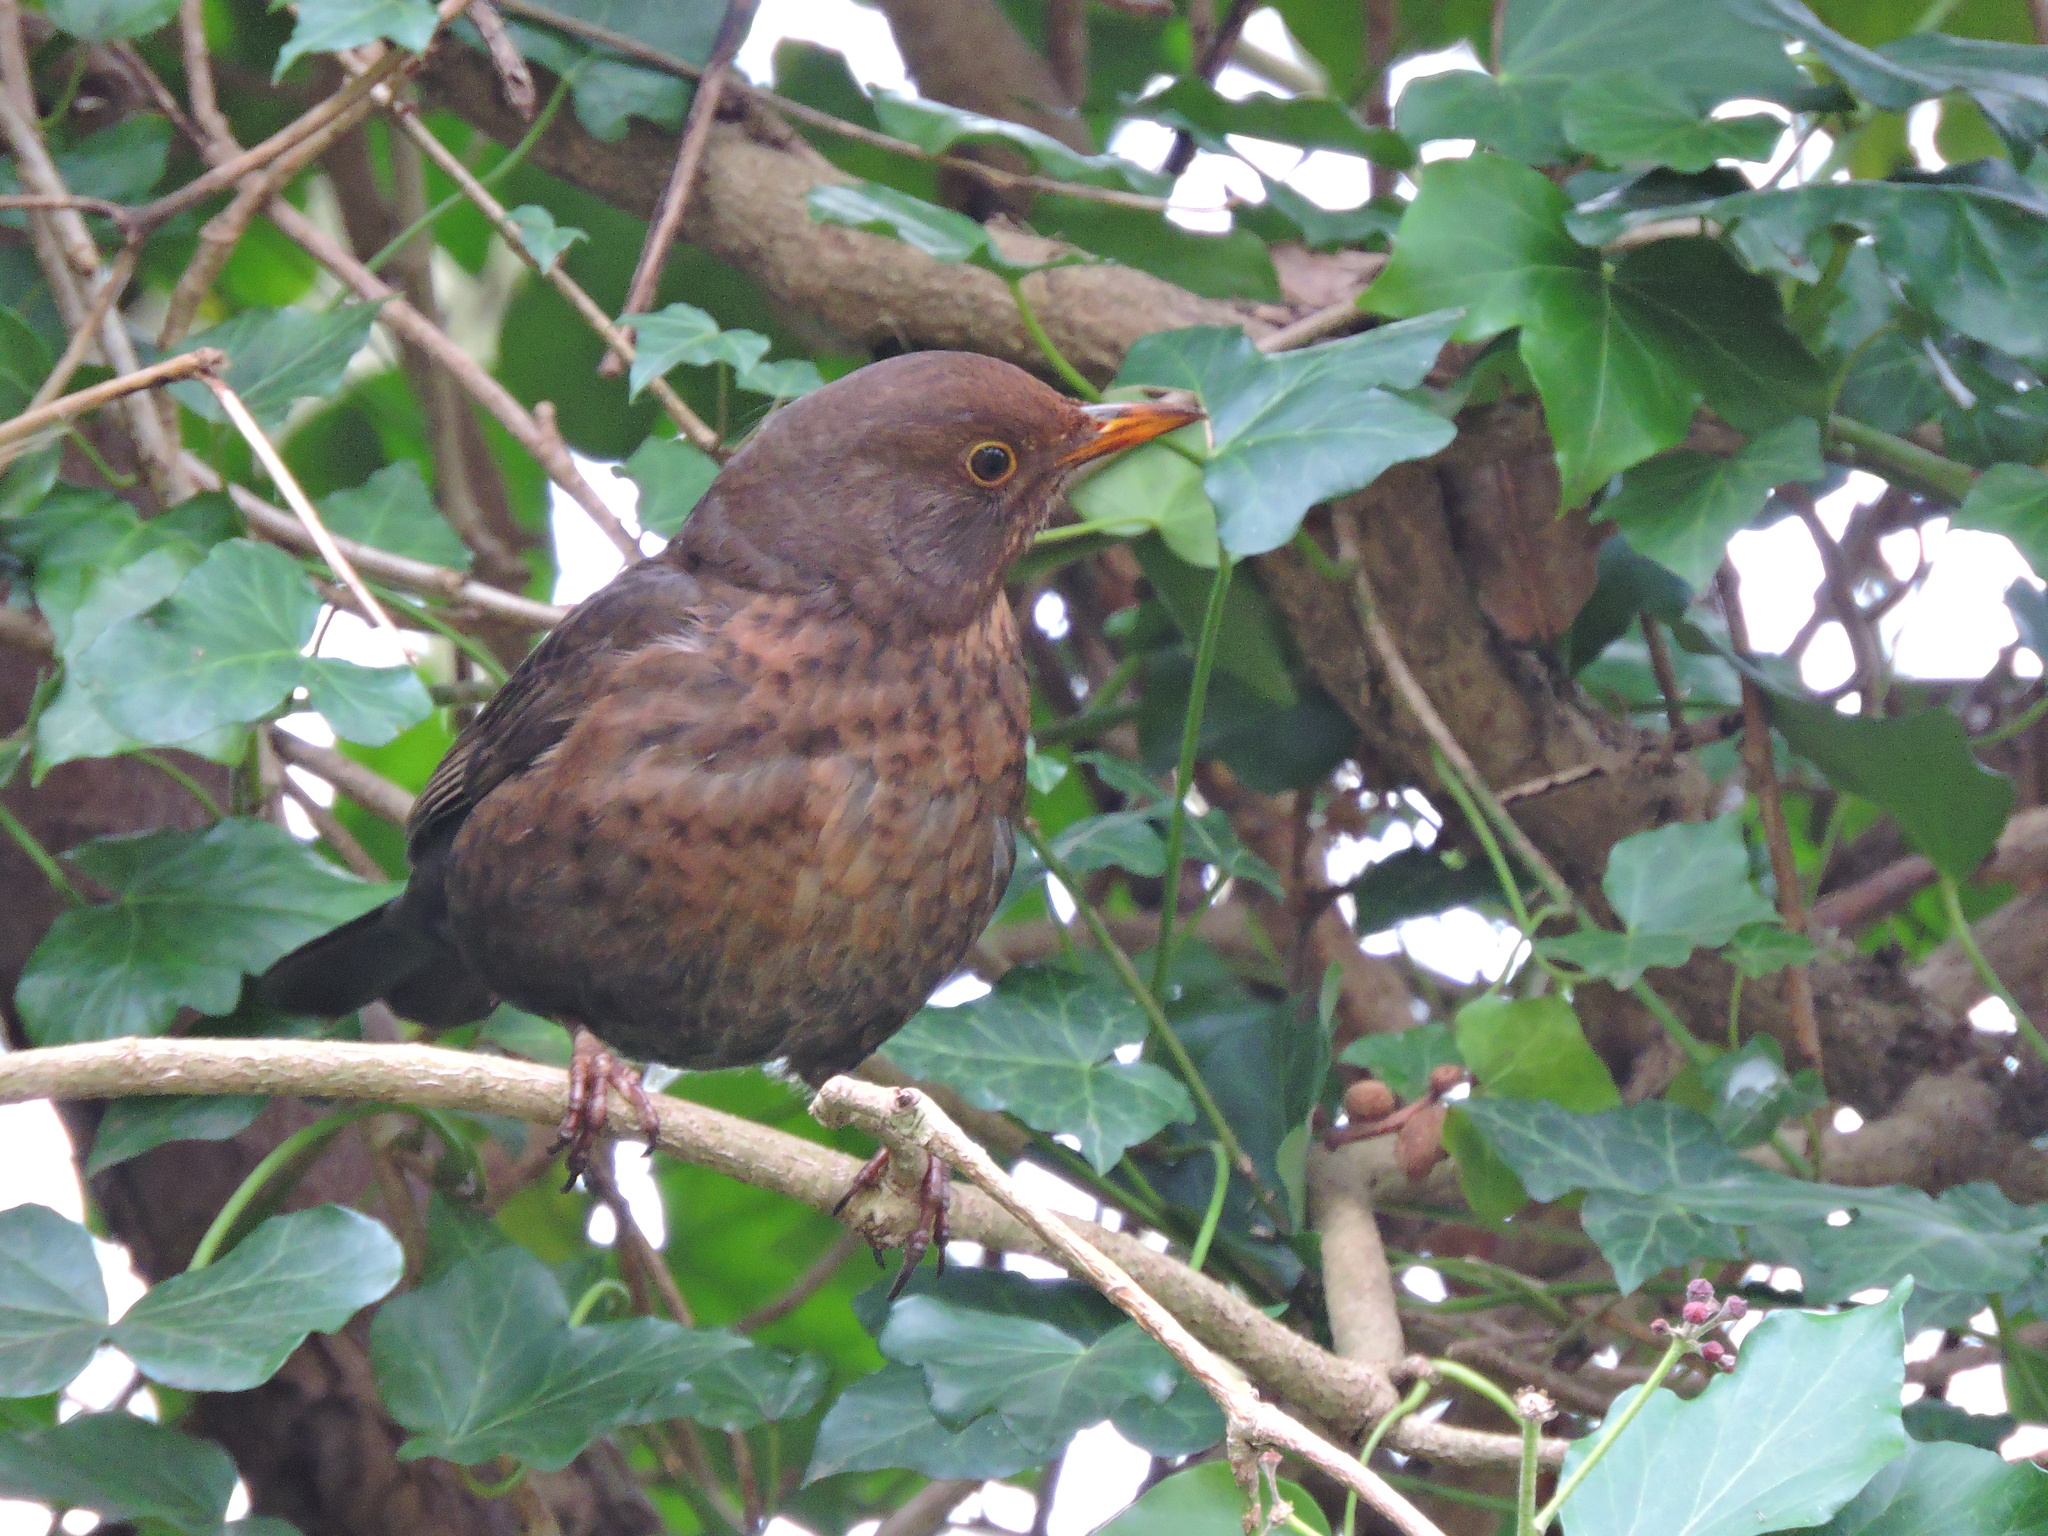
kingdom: Animalia
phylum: Chordata
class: Aves
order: Passeriformes
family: Turdidae
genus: Turdus
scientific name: Turdus merula
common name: Common blackbird
